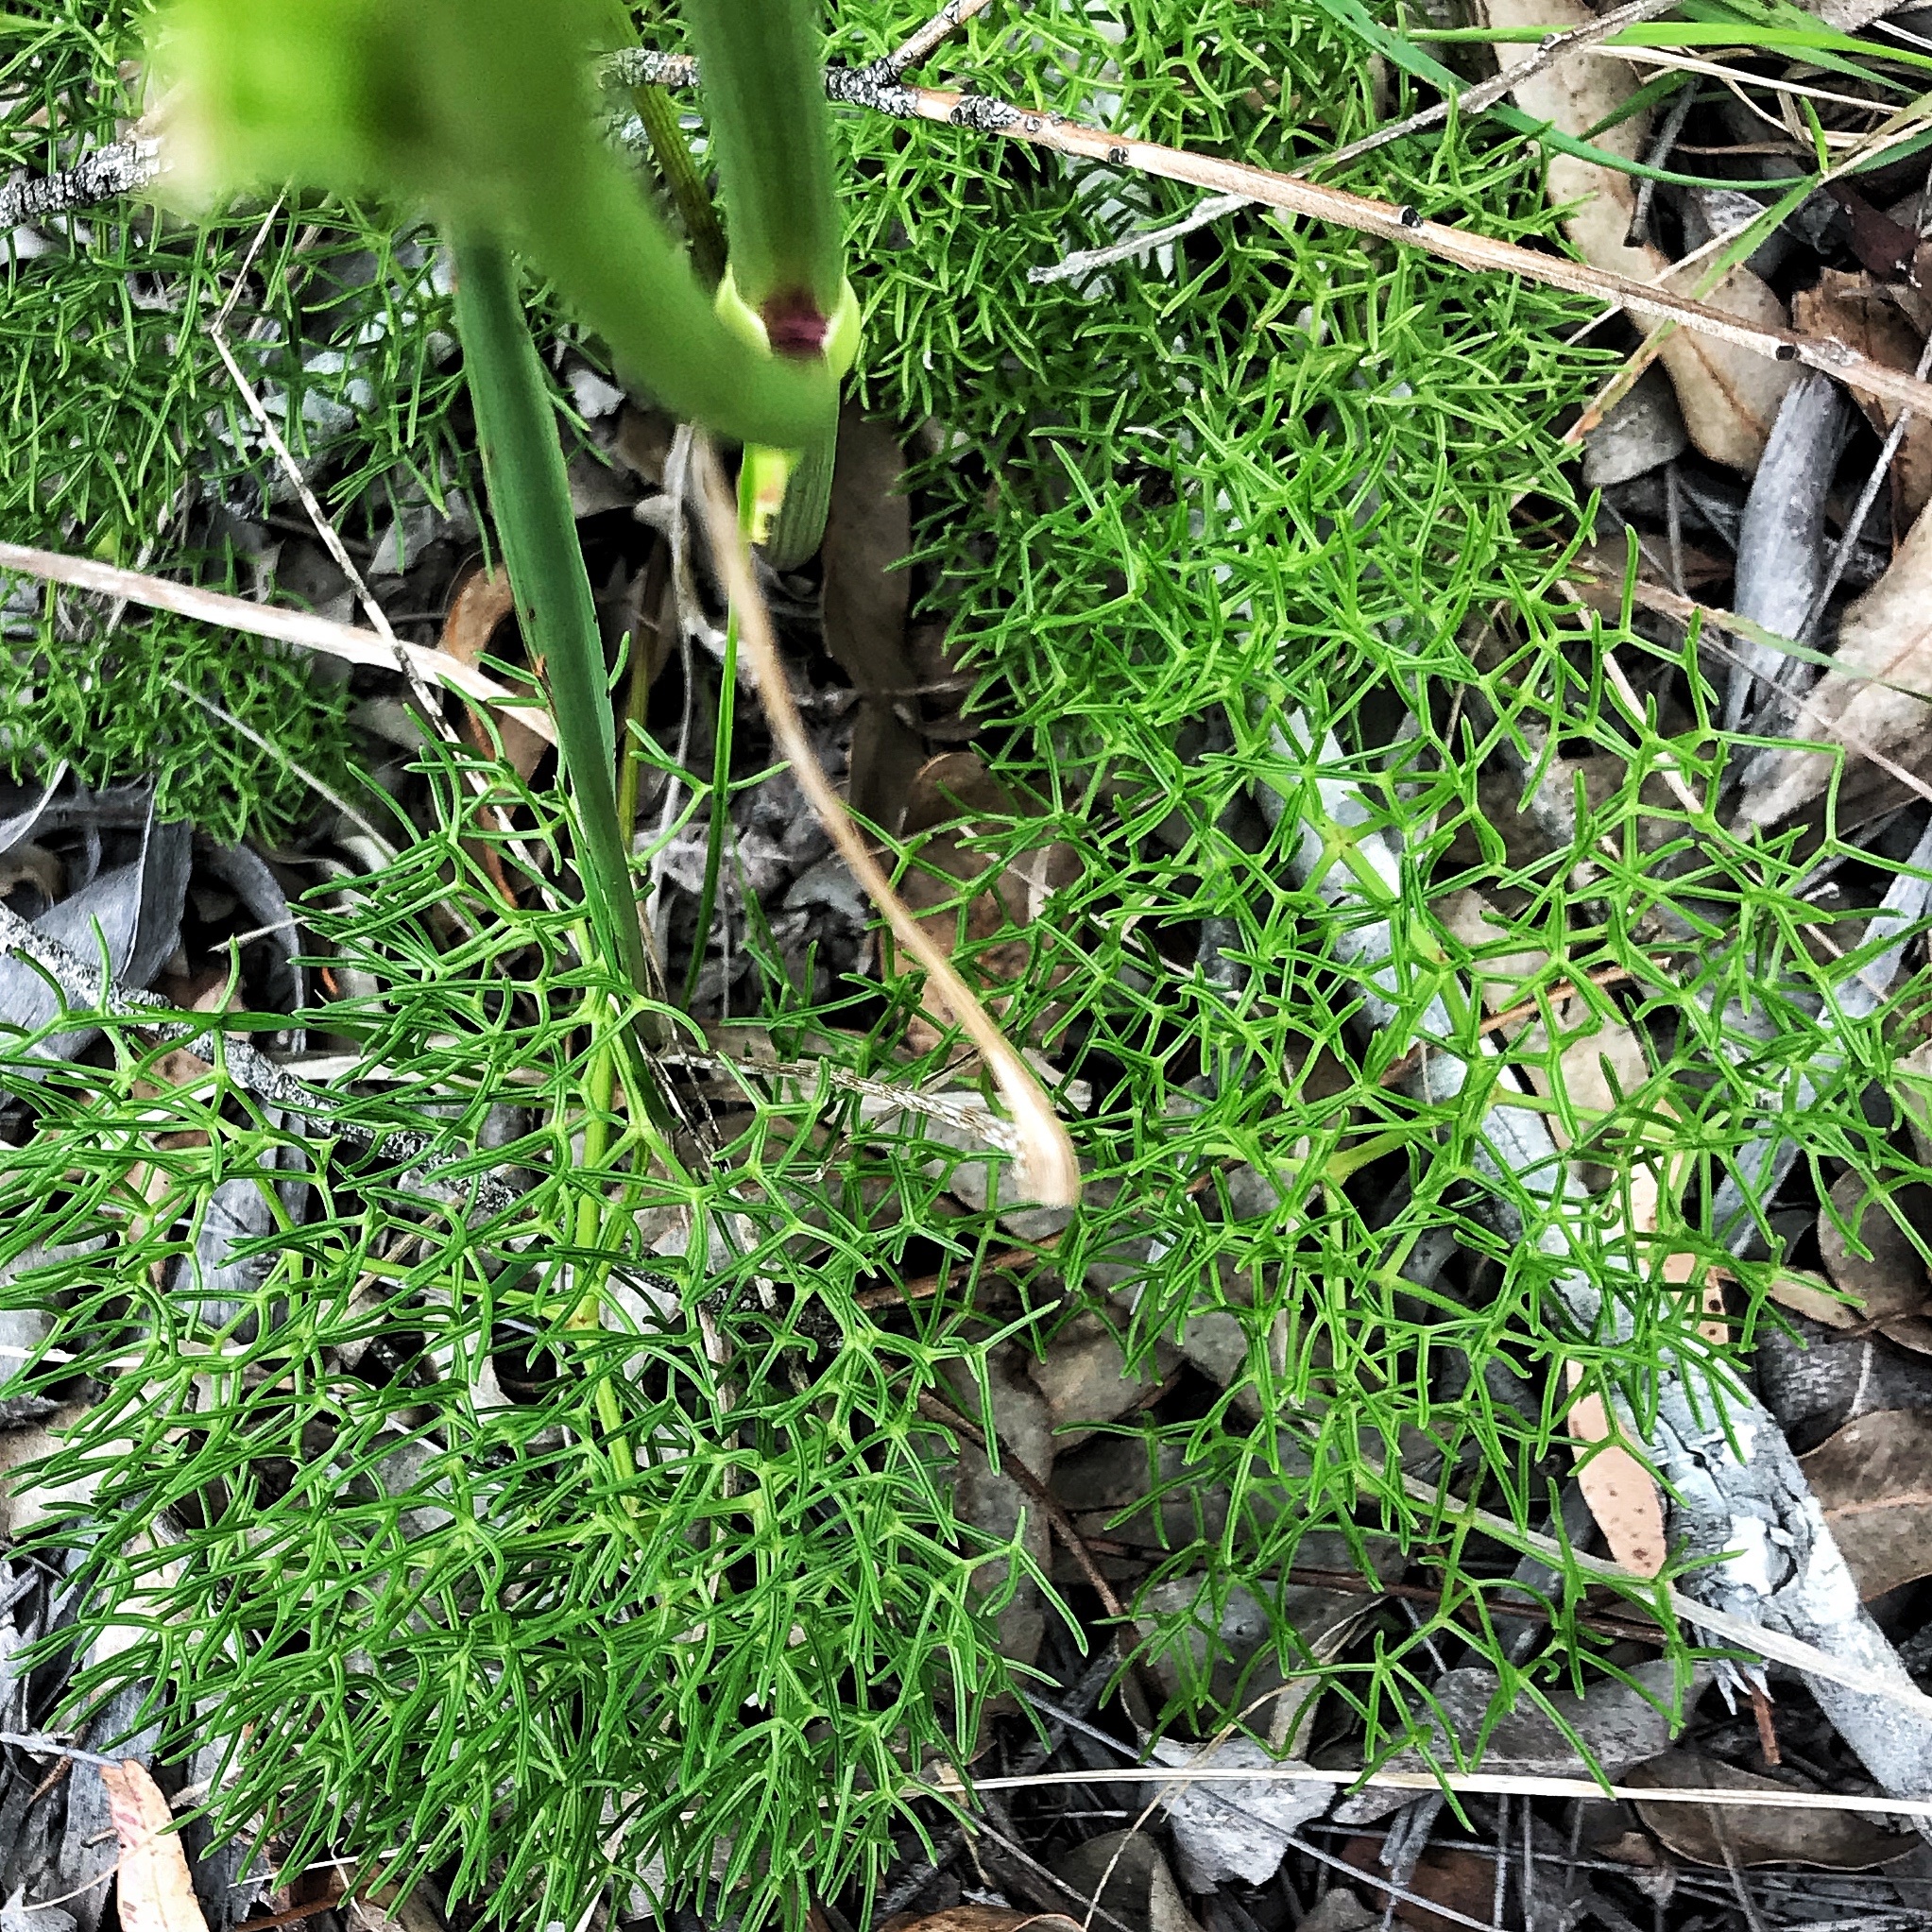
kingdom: Plantae
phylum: Tracheophyta
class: Magnoliopsida
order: Apiales
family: Apiaceae
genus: Nanobubon
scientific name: Nanobubon capillaceum
